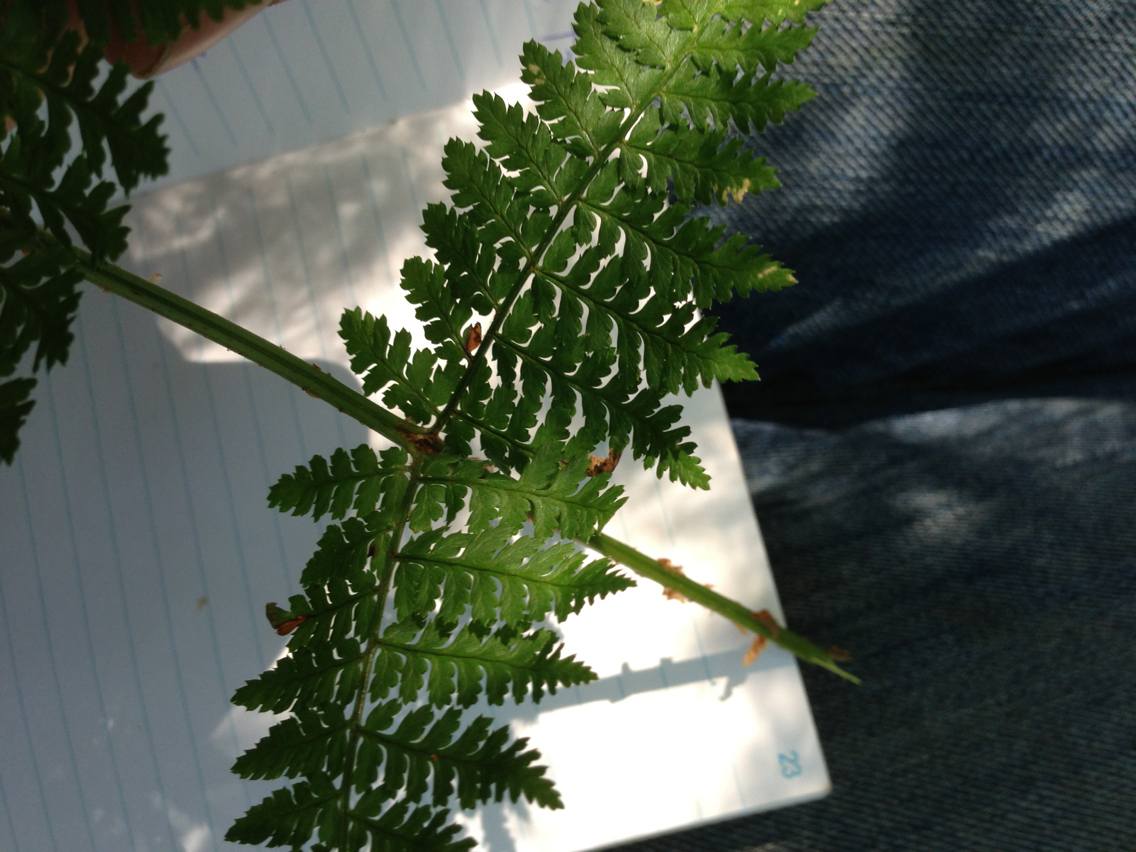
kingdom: Plantae
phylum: Tracheophyta
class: Polypodiopsida
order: Polypodiales
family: Dryopteridaceae
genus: Dryopteris
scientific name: Dryopteris intermedia
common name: Evergreen wood fern
